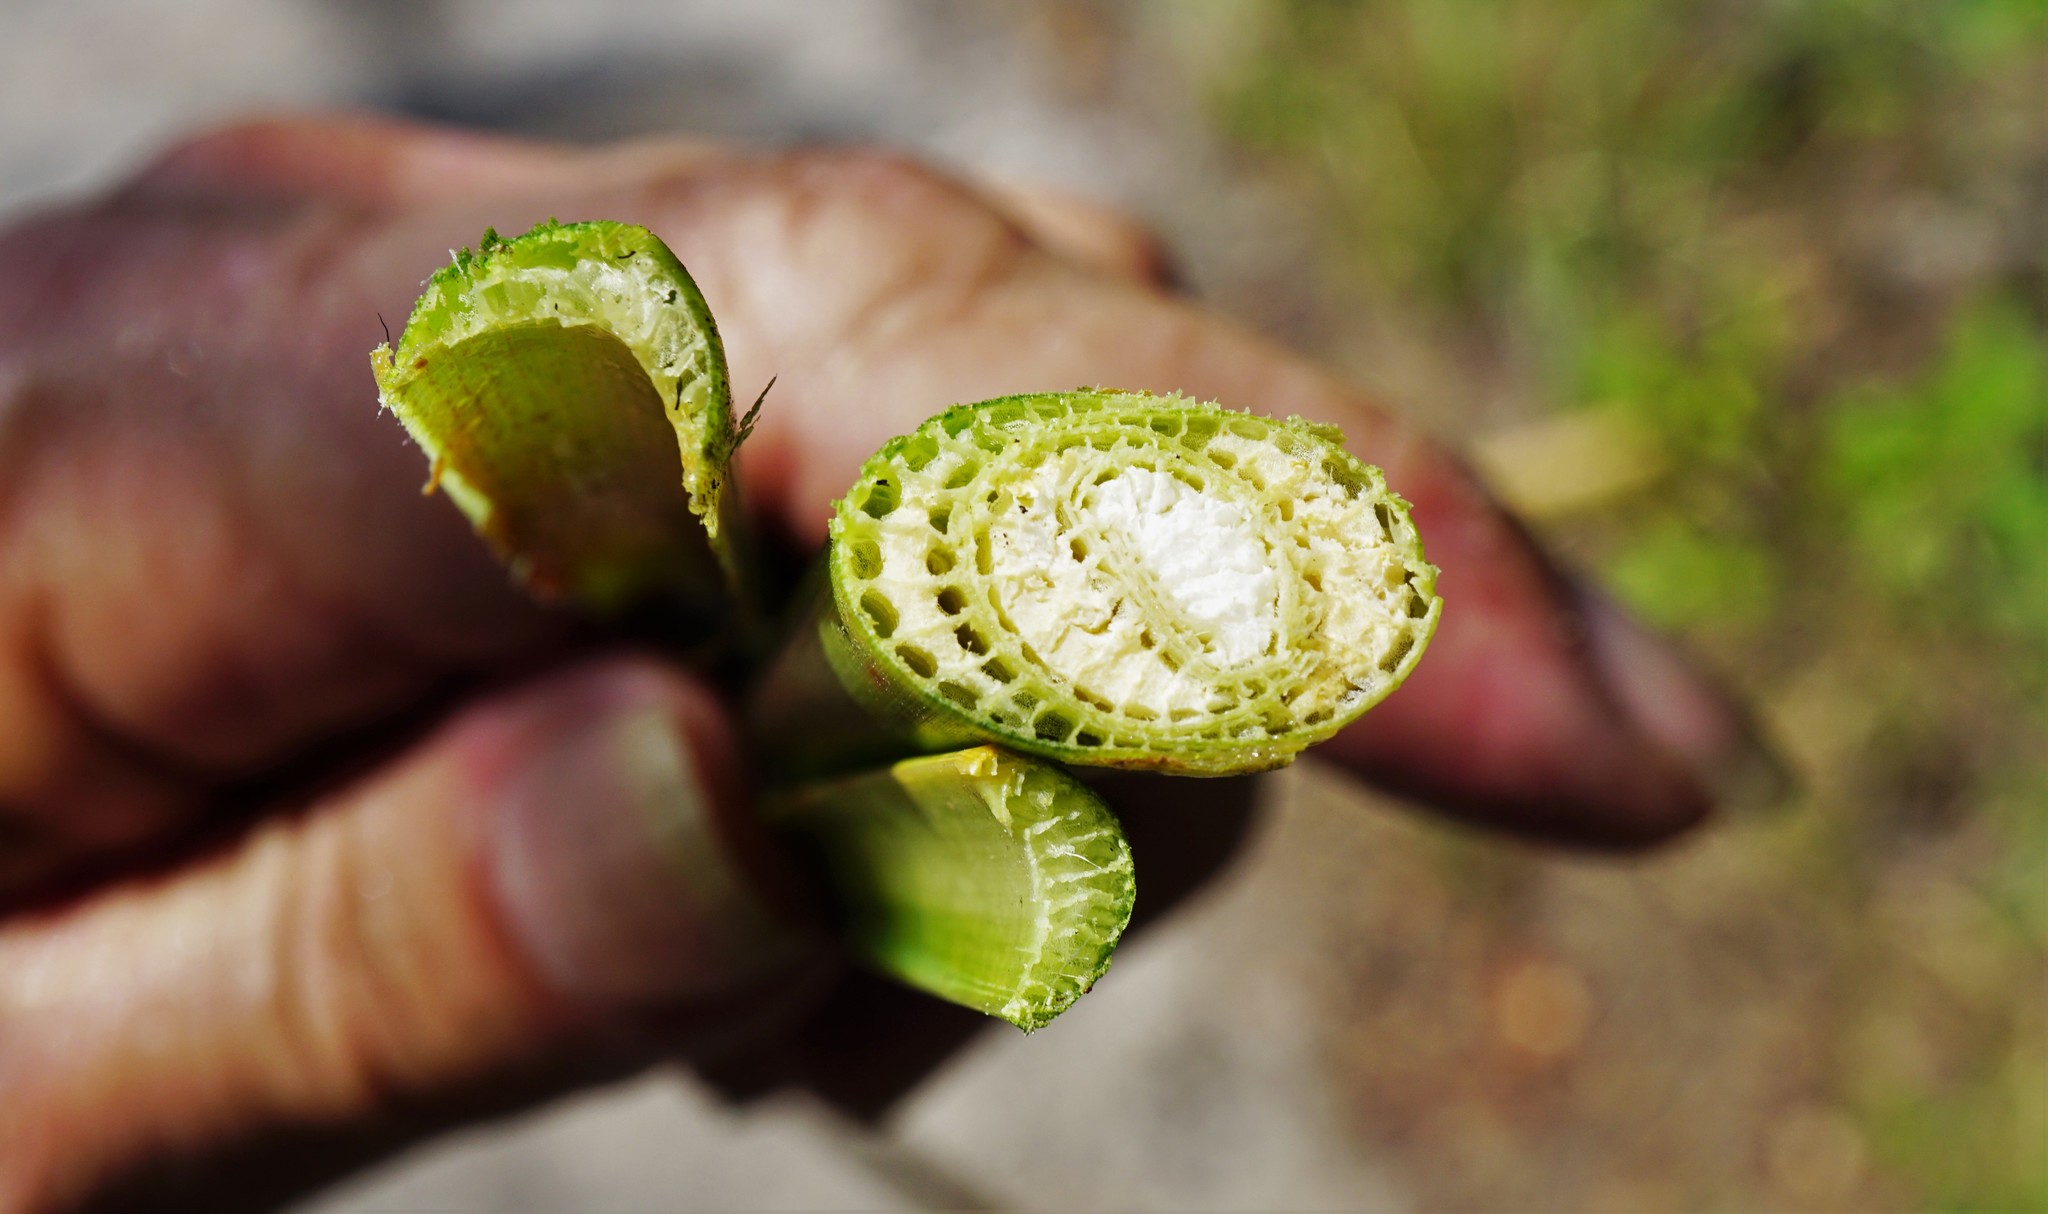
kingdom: Plantae
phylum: Tracheophyta
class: Liliopsida
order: Poales
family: Typhaceae
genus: Typha
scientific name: Typha angustifolia
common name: Lesser bulrush
